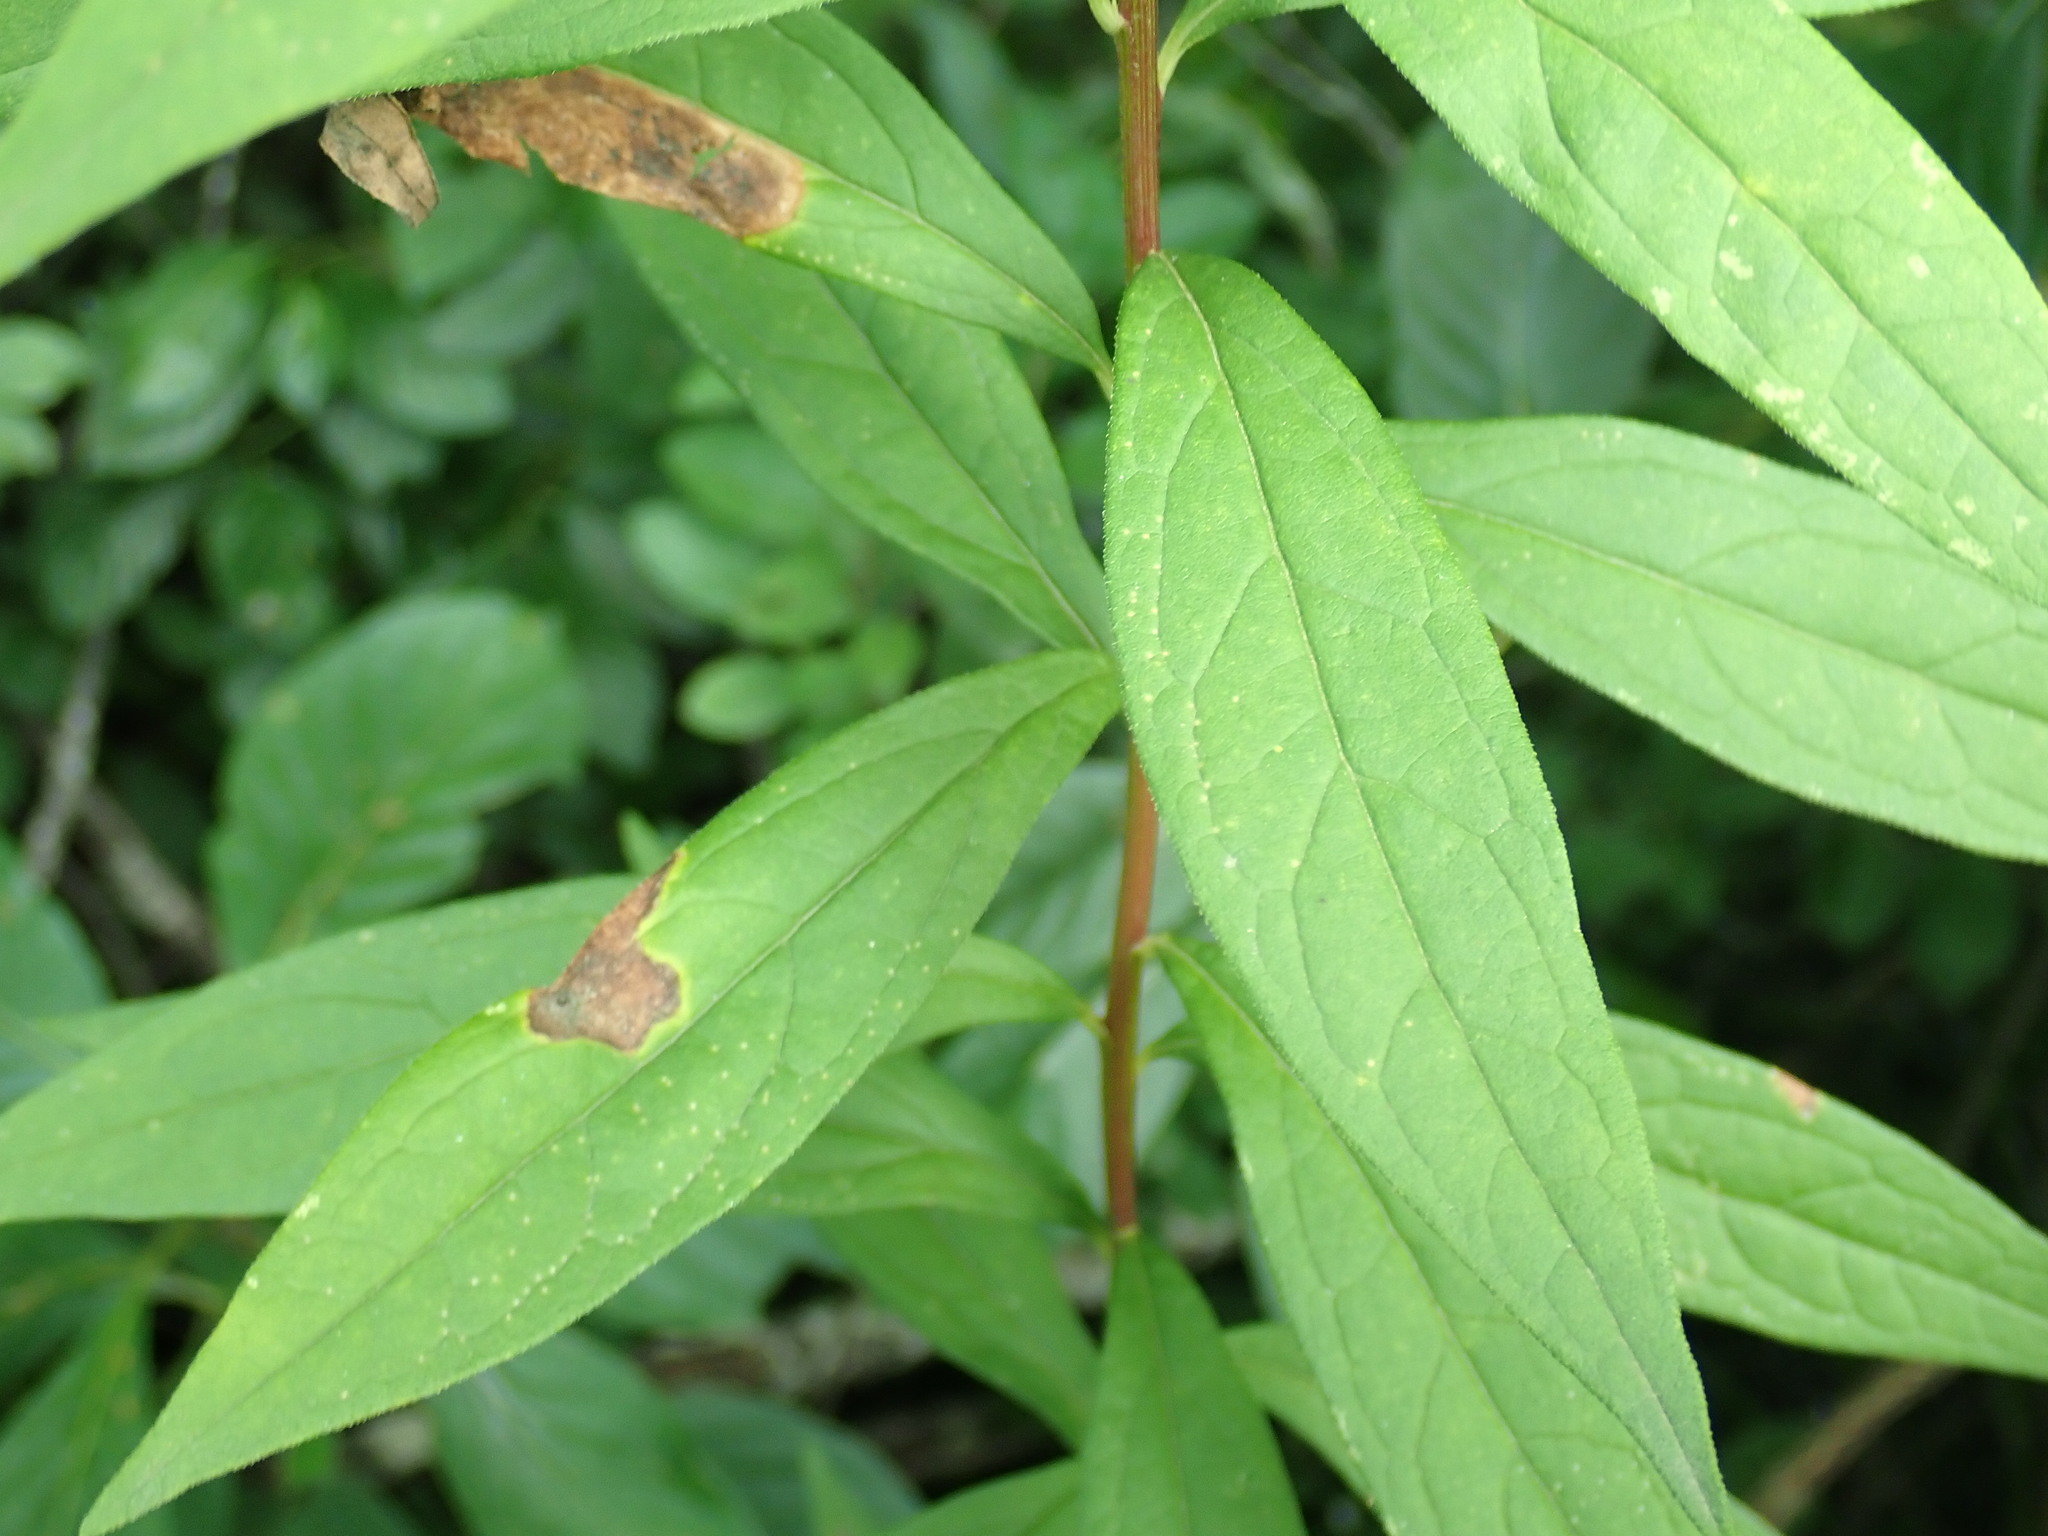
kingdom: Plantae
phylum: Tracheophyta
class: Magnoliopsida
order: Asterales
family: Asteraceae
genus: Doellingeria
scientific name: Doellingeria umbellata
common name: Flat-top white aster
